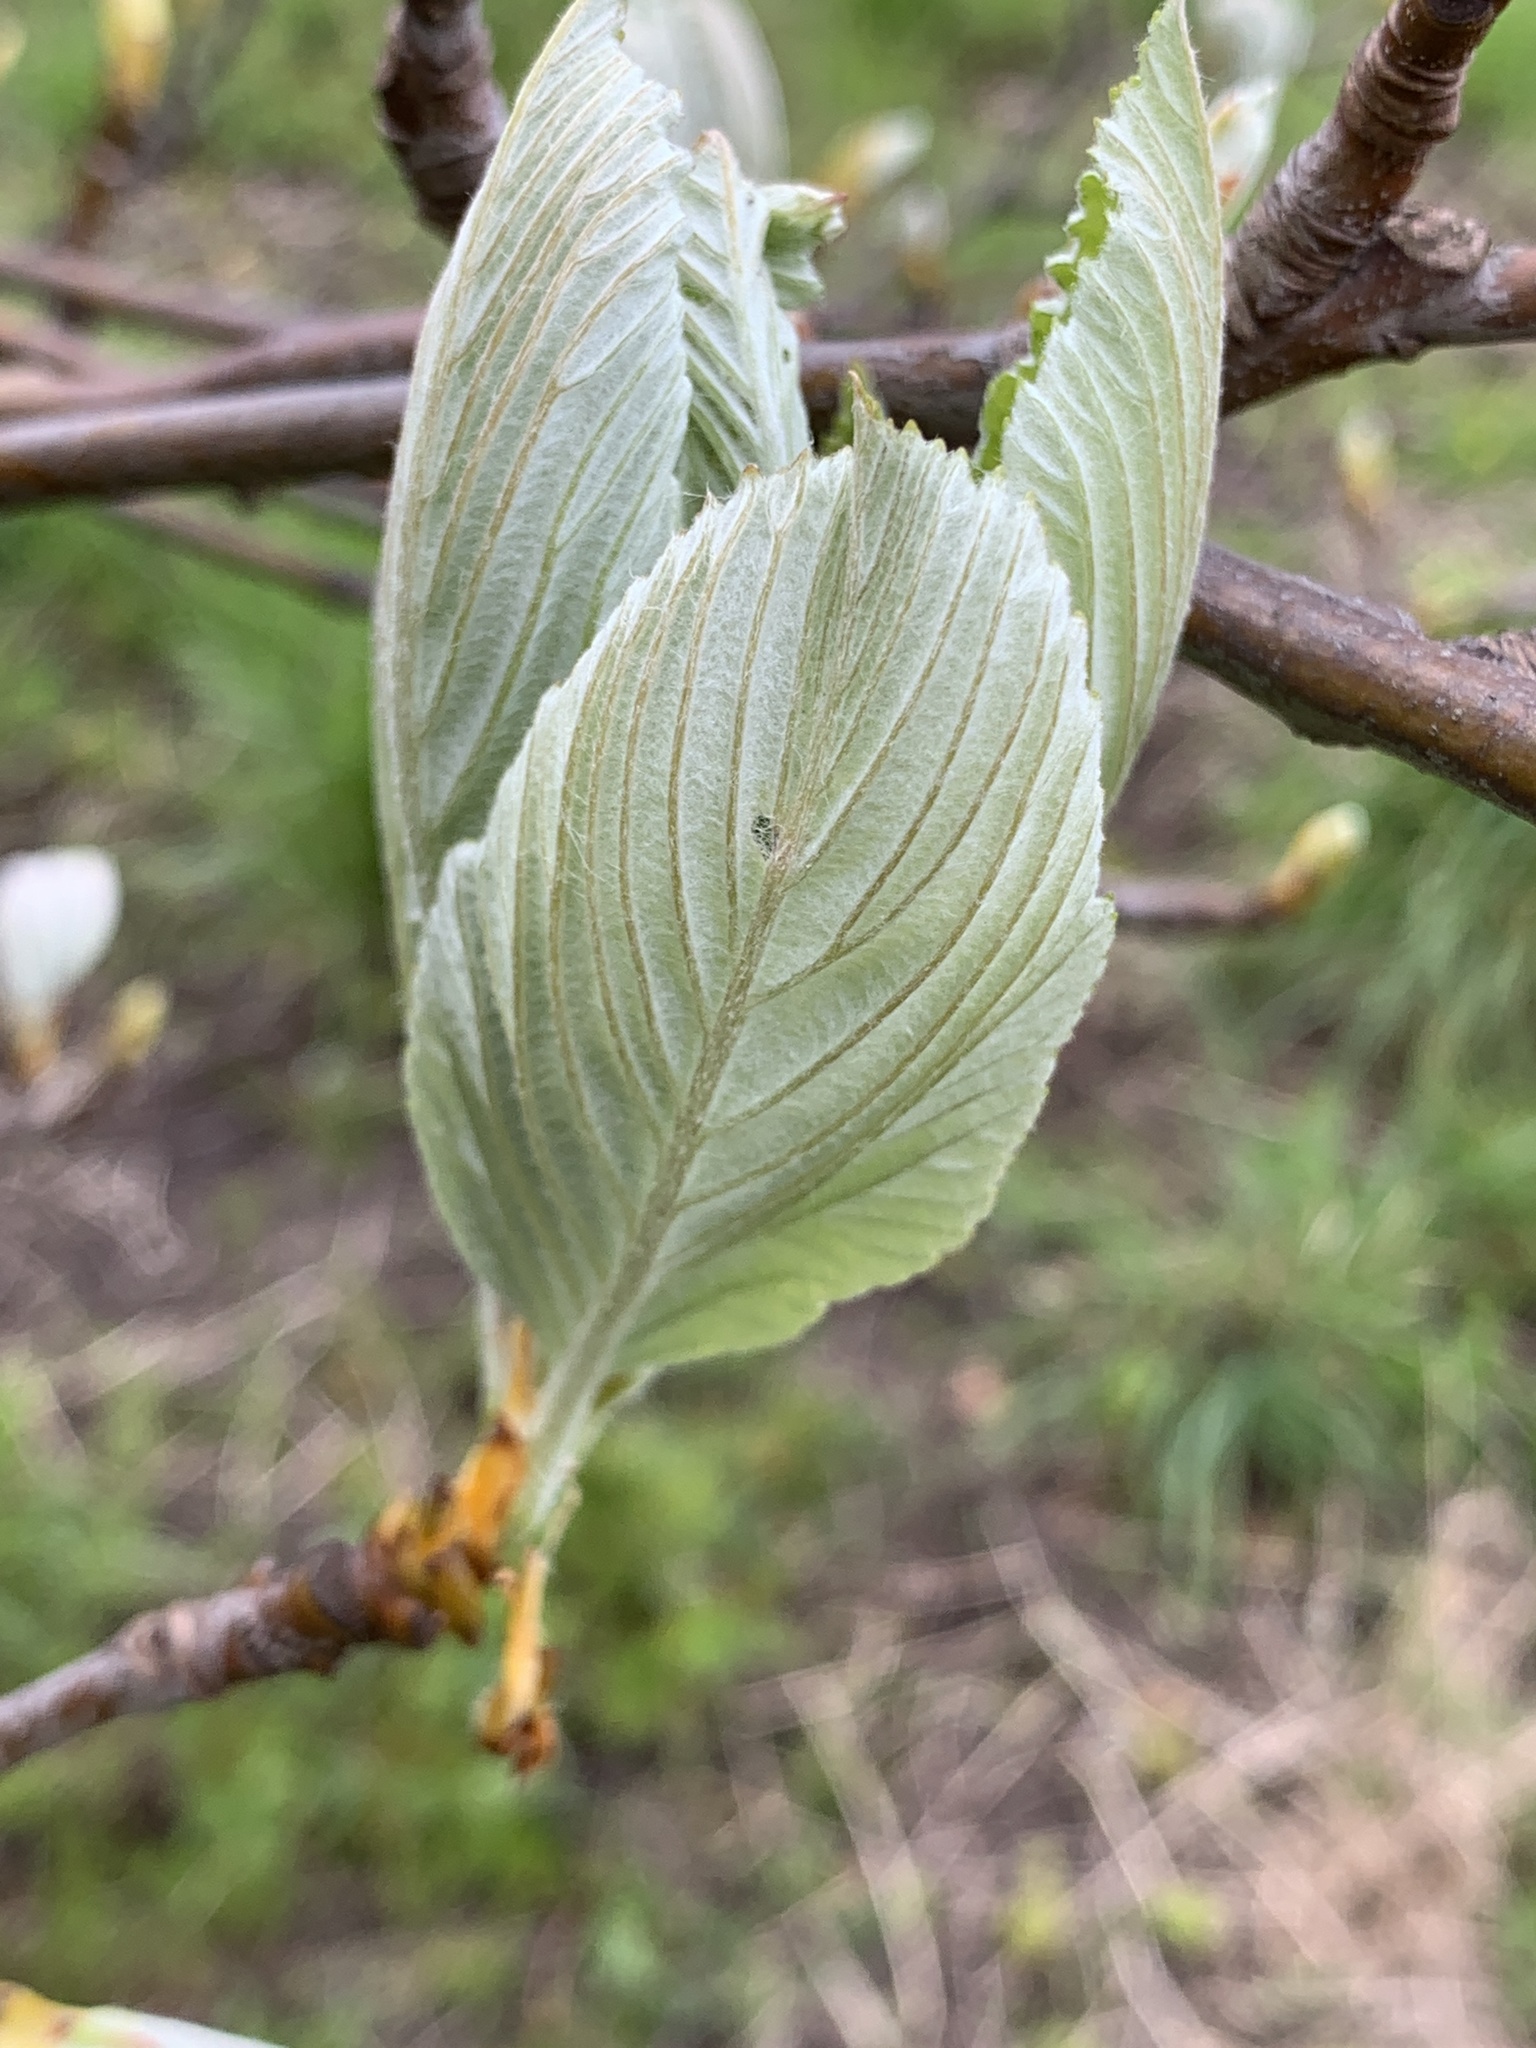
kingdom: Plantae
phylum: Tracheophyta
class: Magnoliopsida
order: Rosales
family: Rosaceae
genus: Aria
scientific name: Aria edulis
